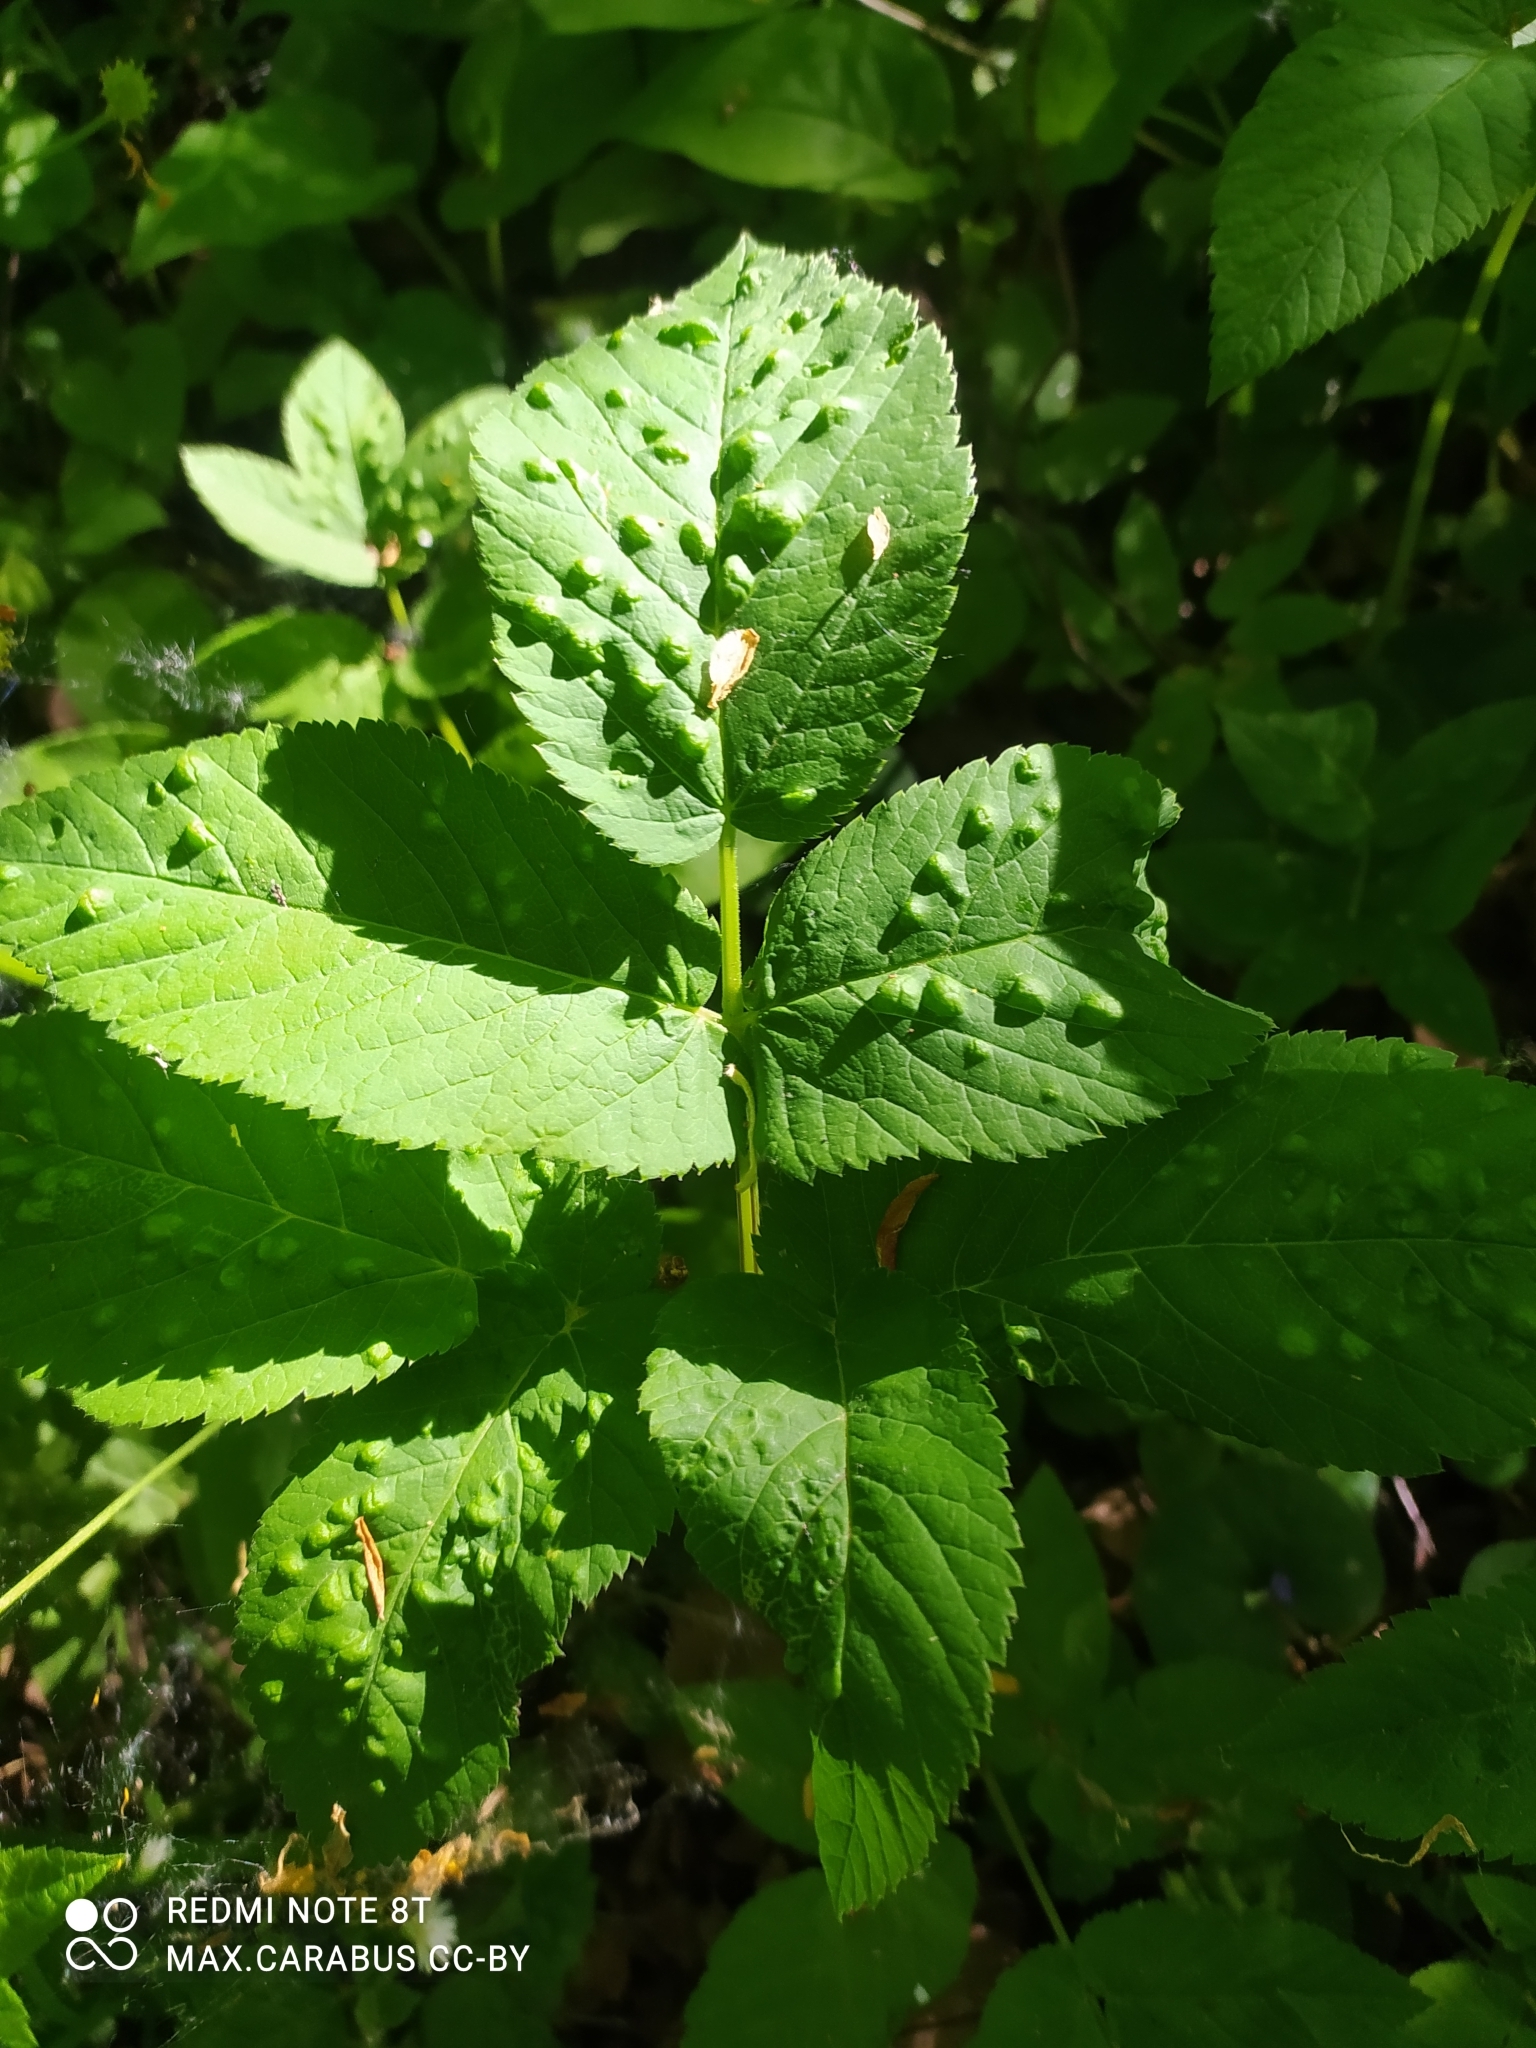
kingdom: Plantae
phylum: Tracheophyta
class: Magnoliopsida
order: Apiales
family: Apiaceae
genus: Aegopodium
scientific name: Aegopodium podagraria
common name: Ground-elder
